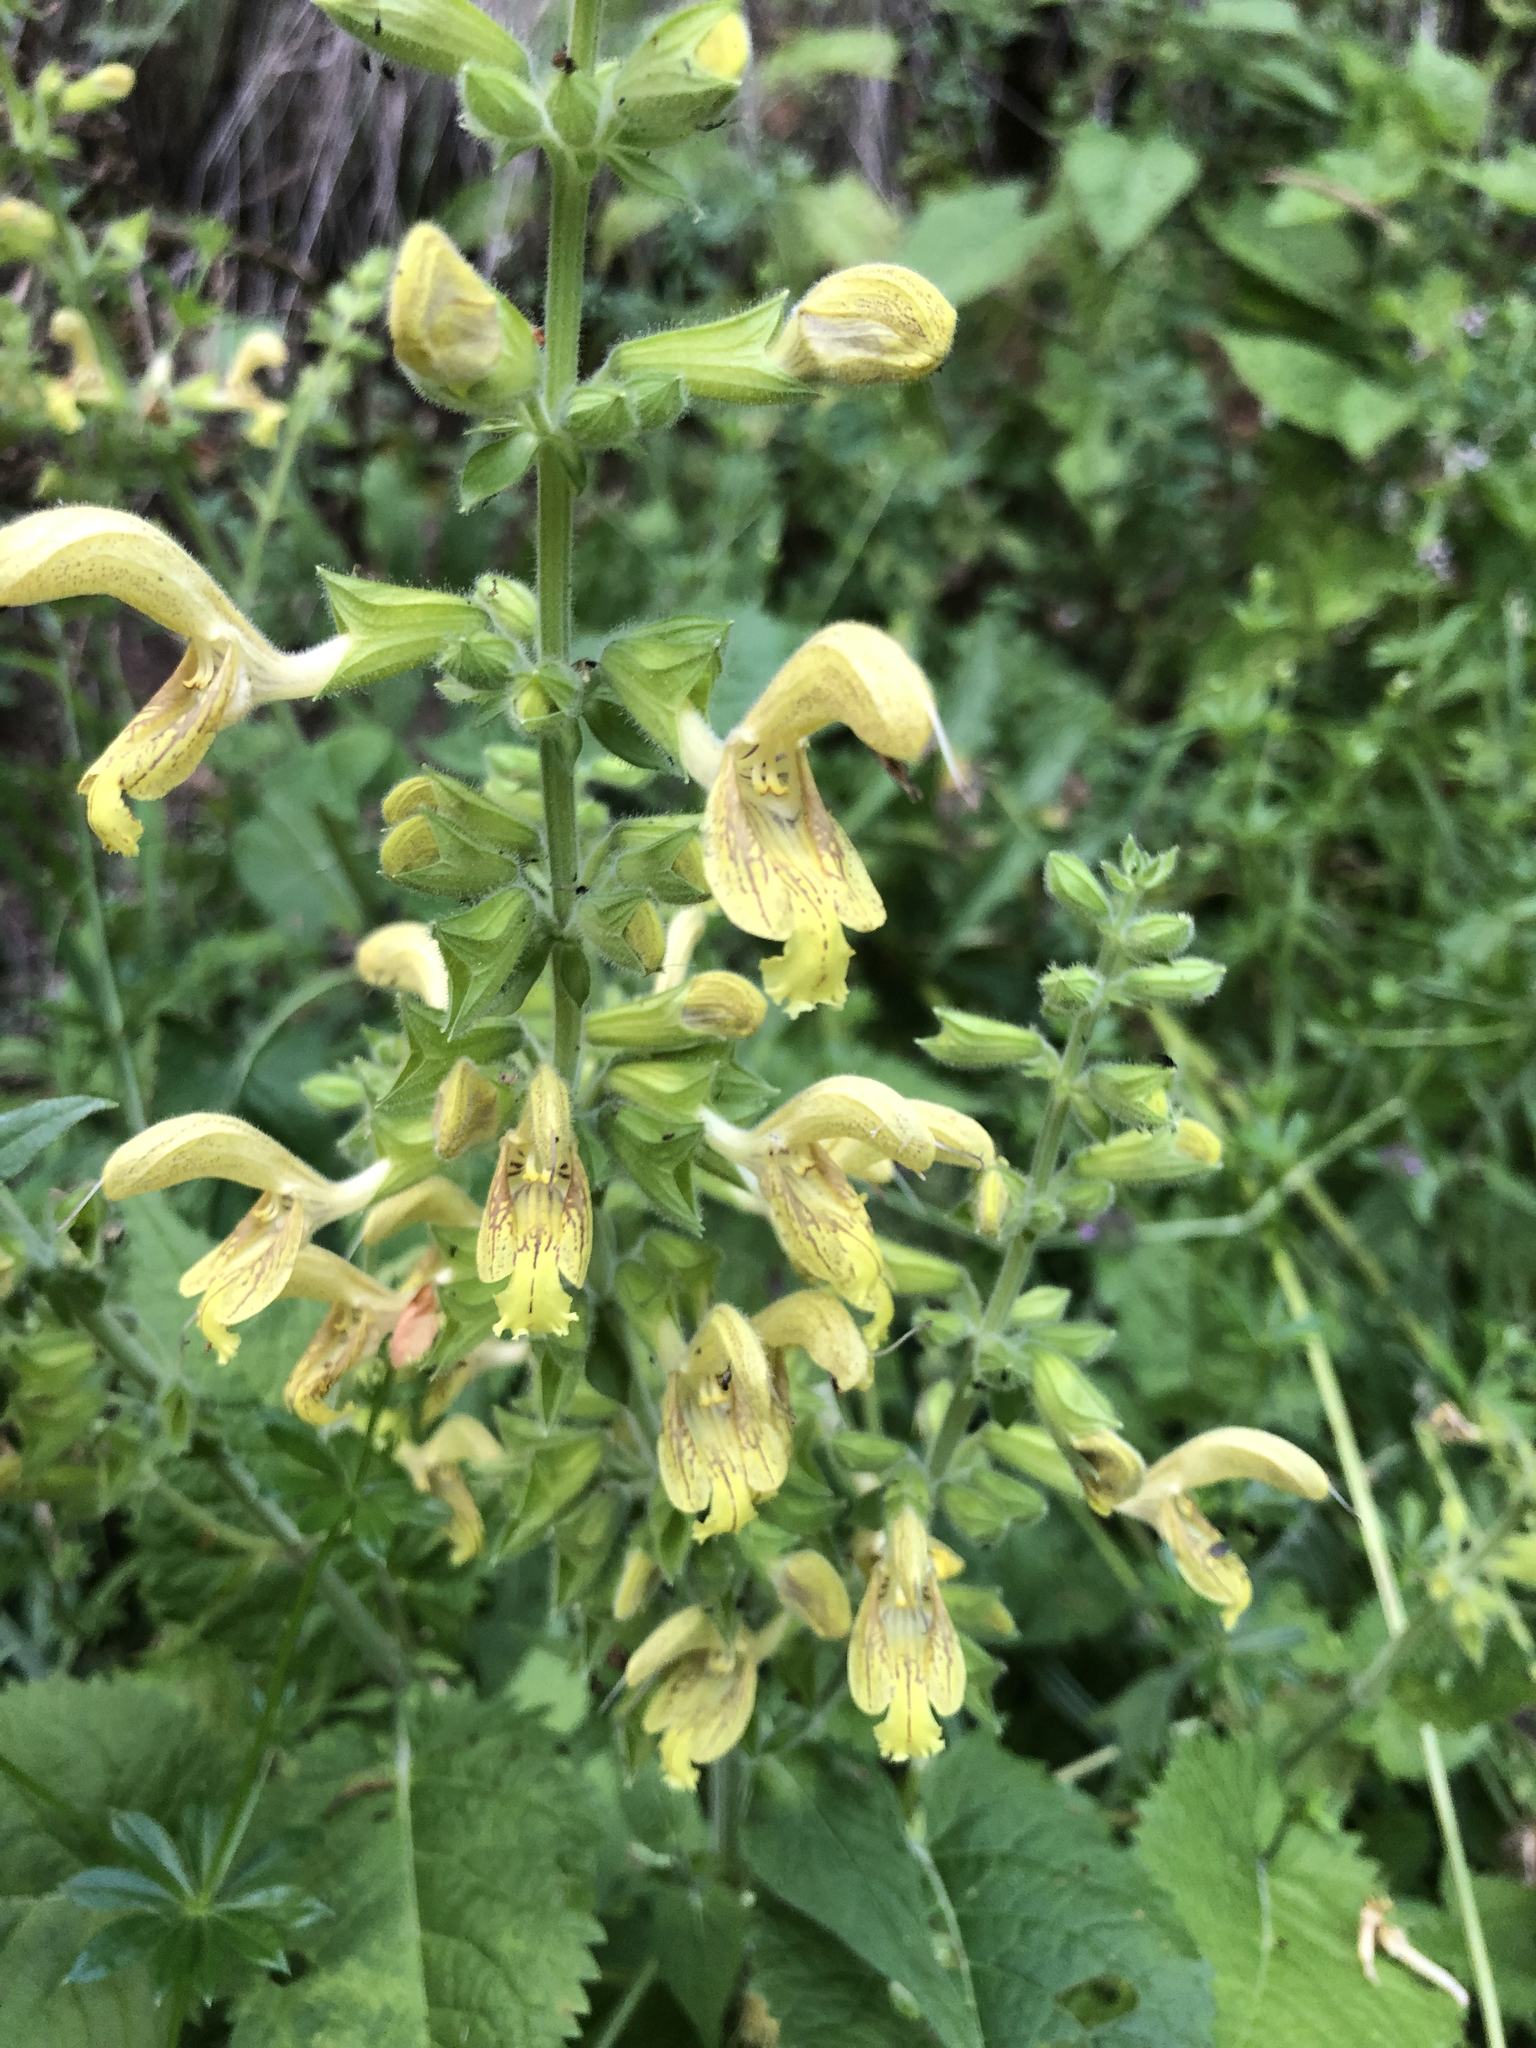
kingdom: Plantae
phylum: Tracheophyta
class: Magnoliopsida
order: Lamiales
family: Lamiaceae
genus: Salvia
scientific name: Salvia glutinosa
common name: Sticky clary
